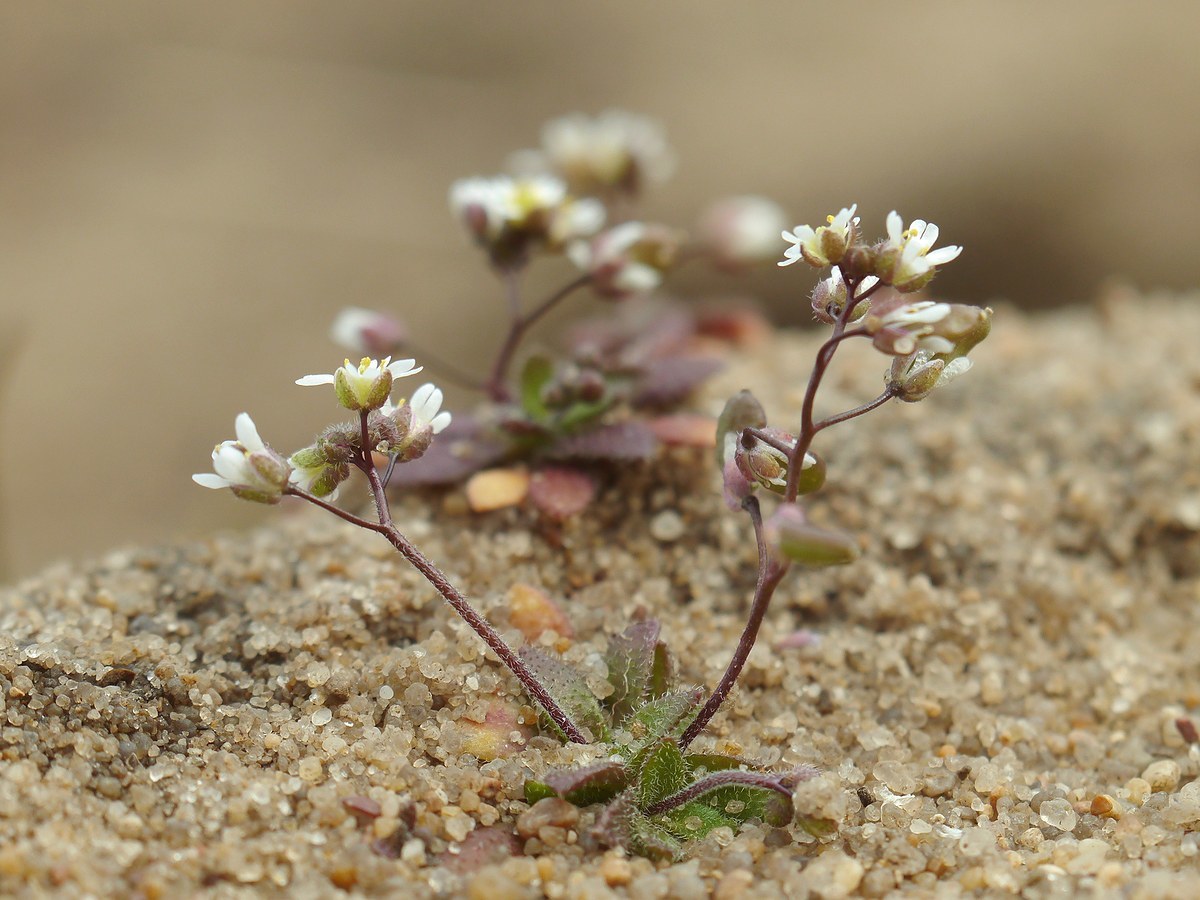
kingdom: Plantae
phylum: Tracheophyta
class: Magnoliopsida
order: Brassicales
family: Brassicaceae
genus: Draba
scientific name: Draba verna
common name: Spring draba
